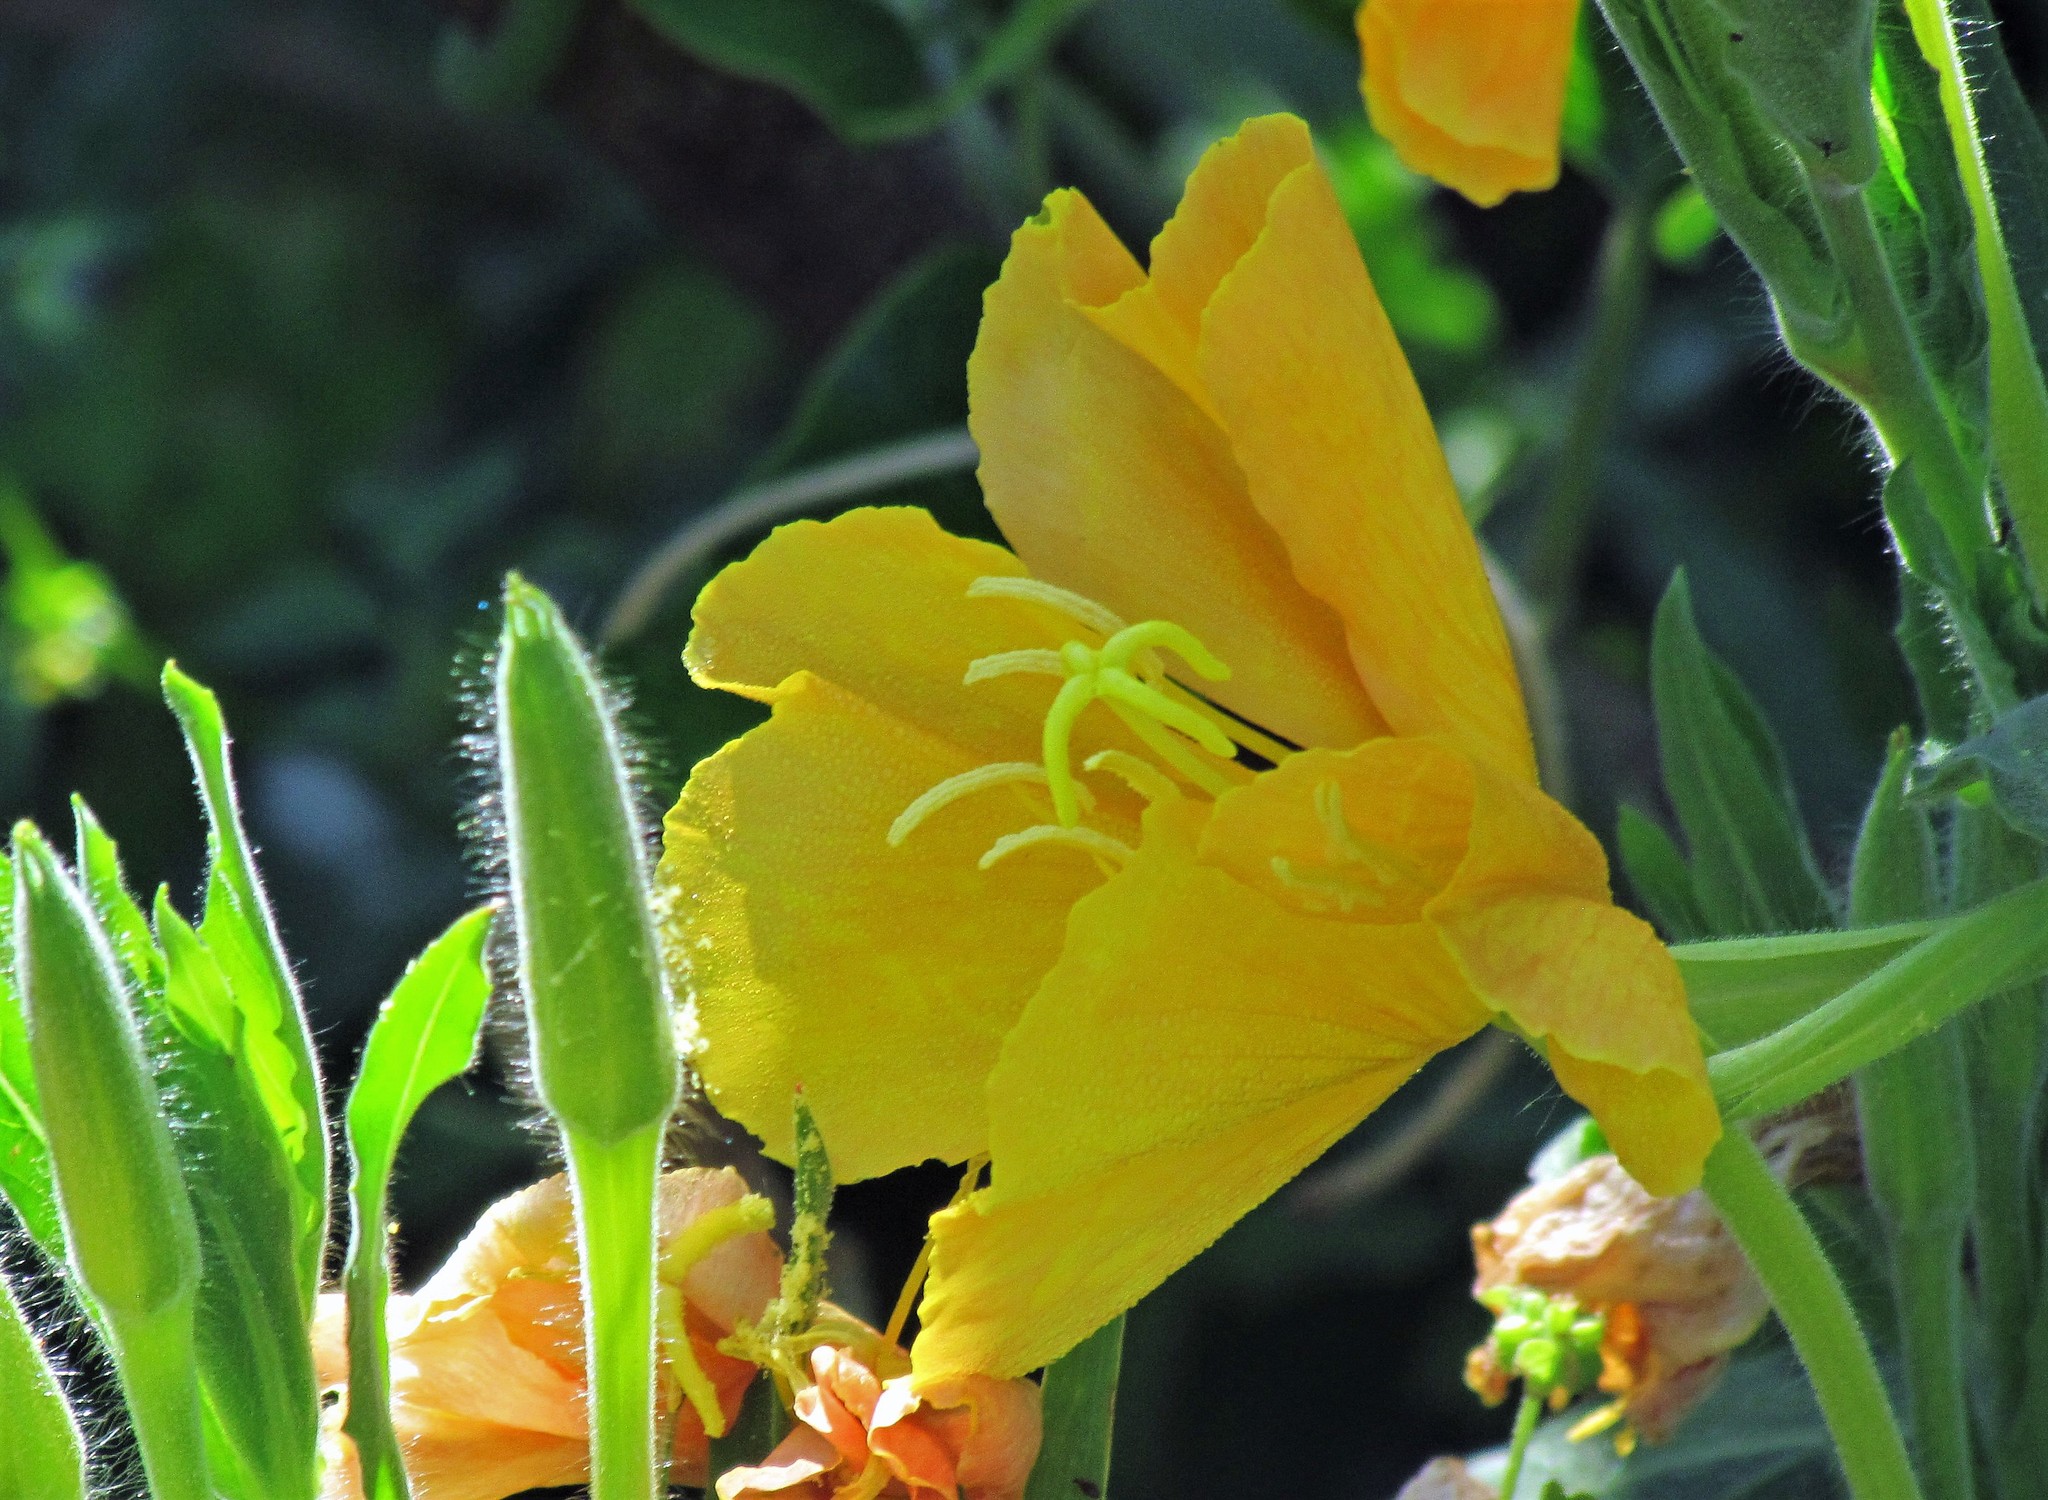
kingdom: Plantae
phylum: Tracheophyta
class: Magnoliopsida
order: Myrtales
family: Onagraceae
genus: Oenothera
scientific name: Oenothera affinis
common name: Longflower evening primrose
